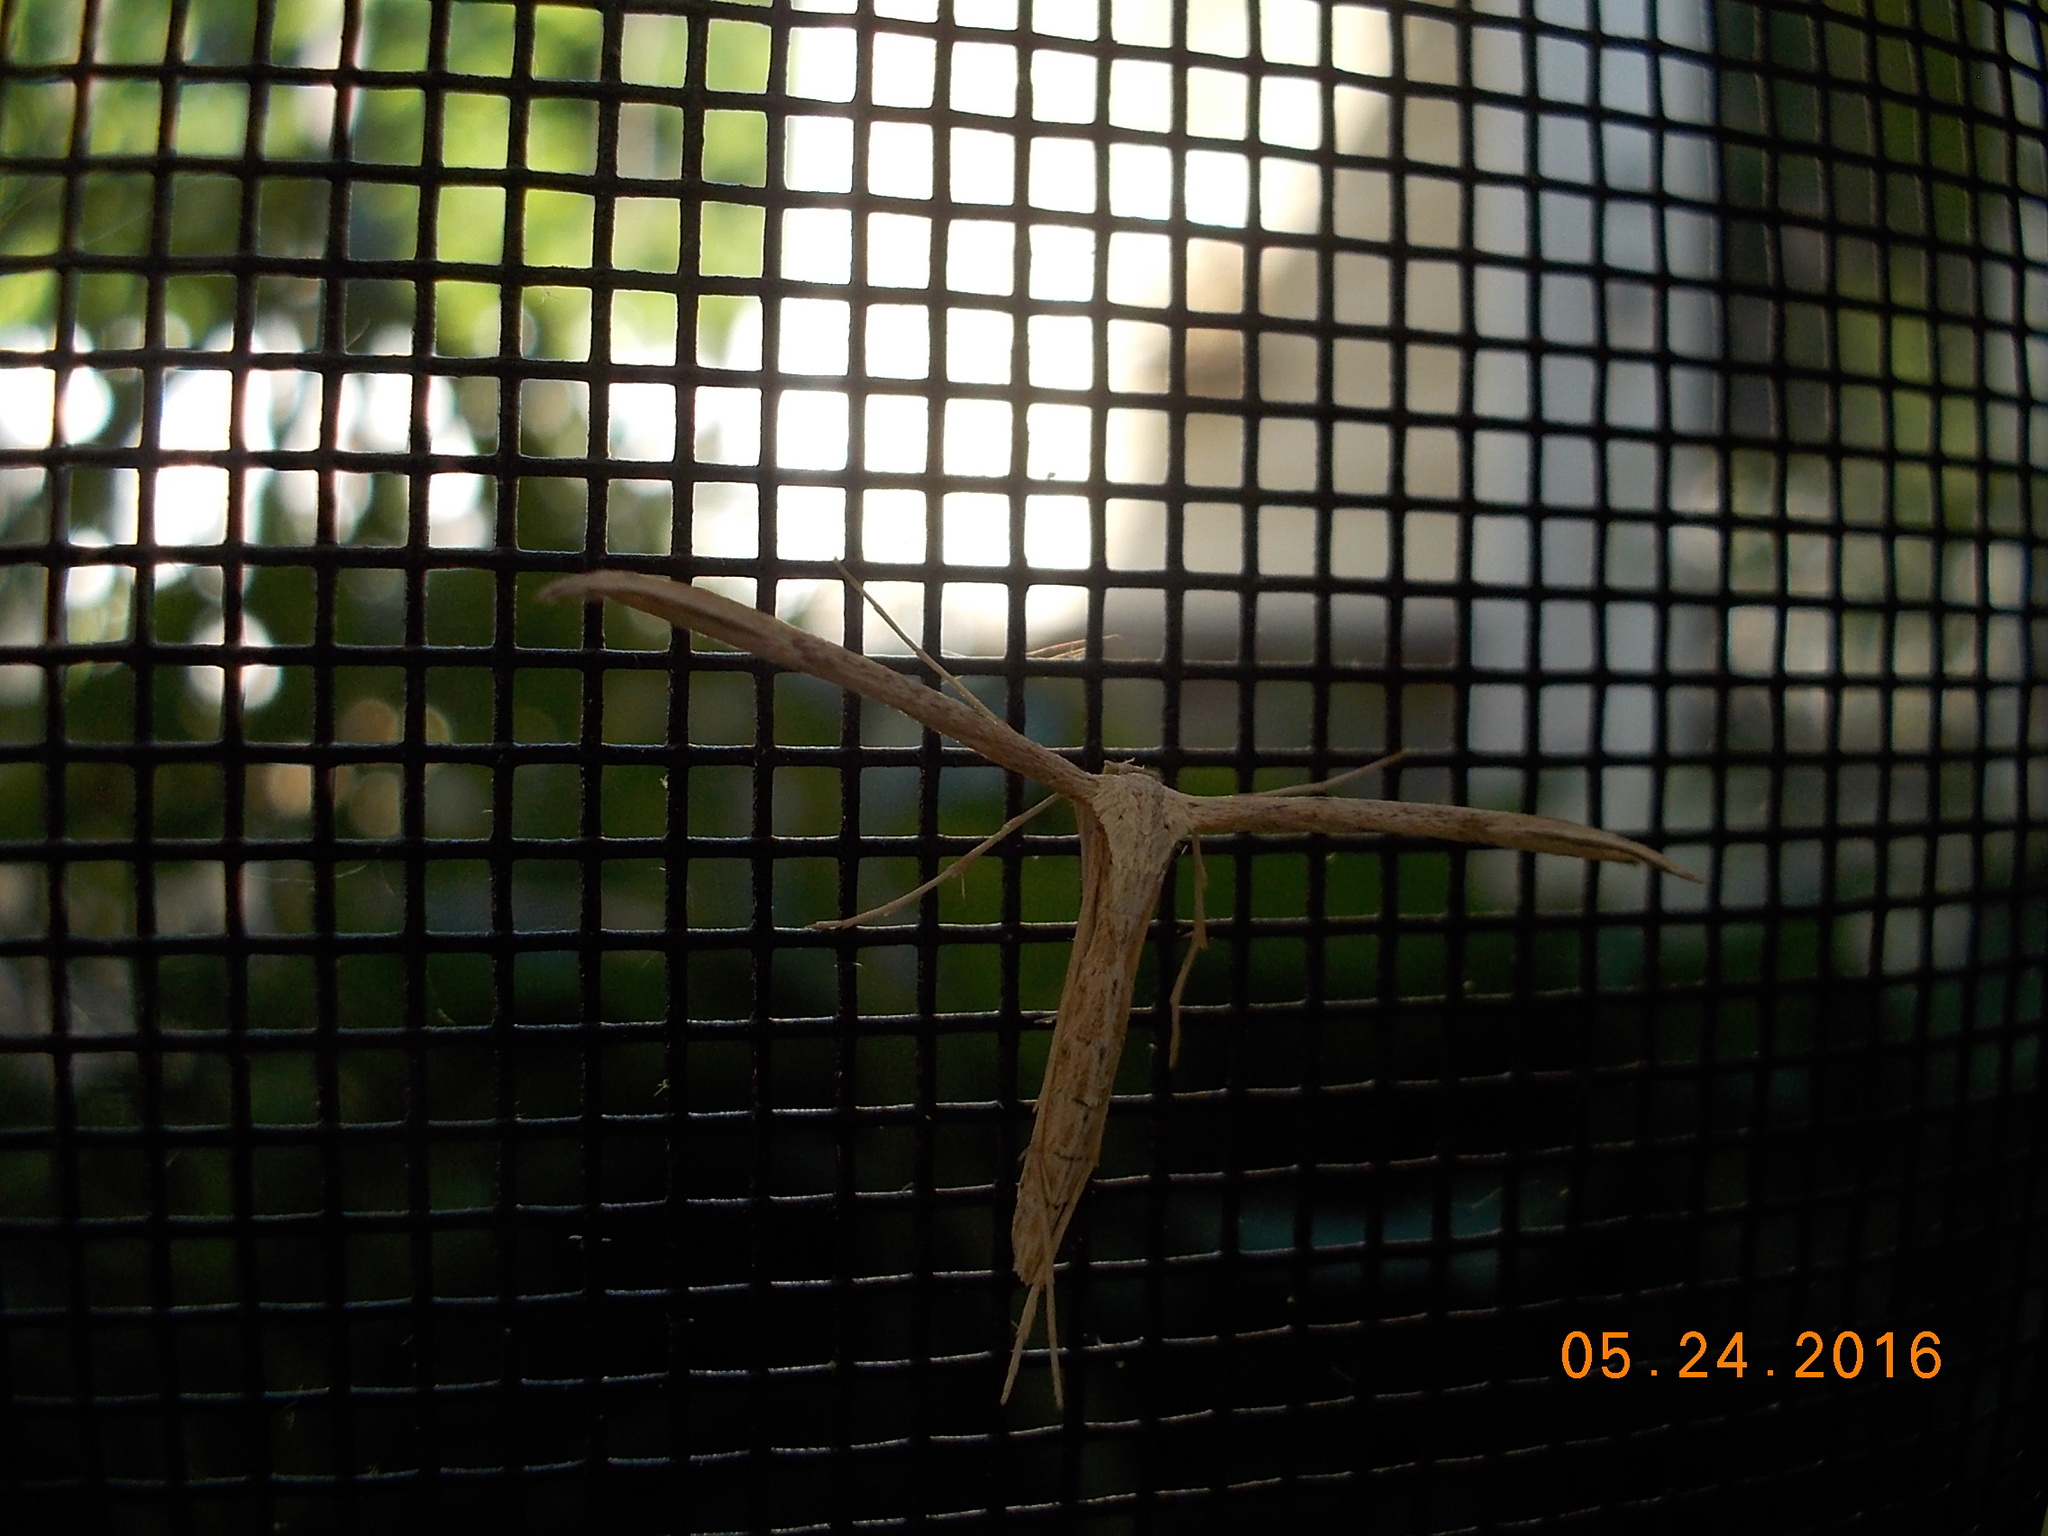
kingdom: Animalia
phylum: Arthropoda
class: Insecta
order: Lepidoptera
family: Pterophoridae
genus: Emmelina
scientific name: Emmelina monodactyla
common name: Common plume
